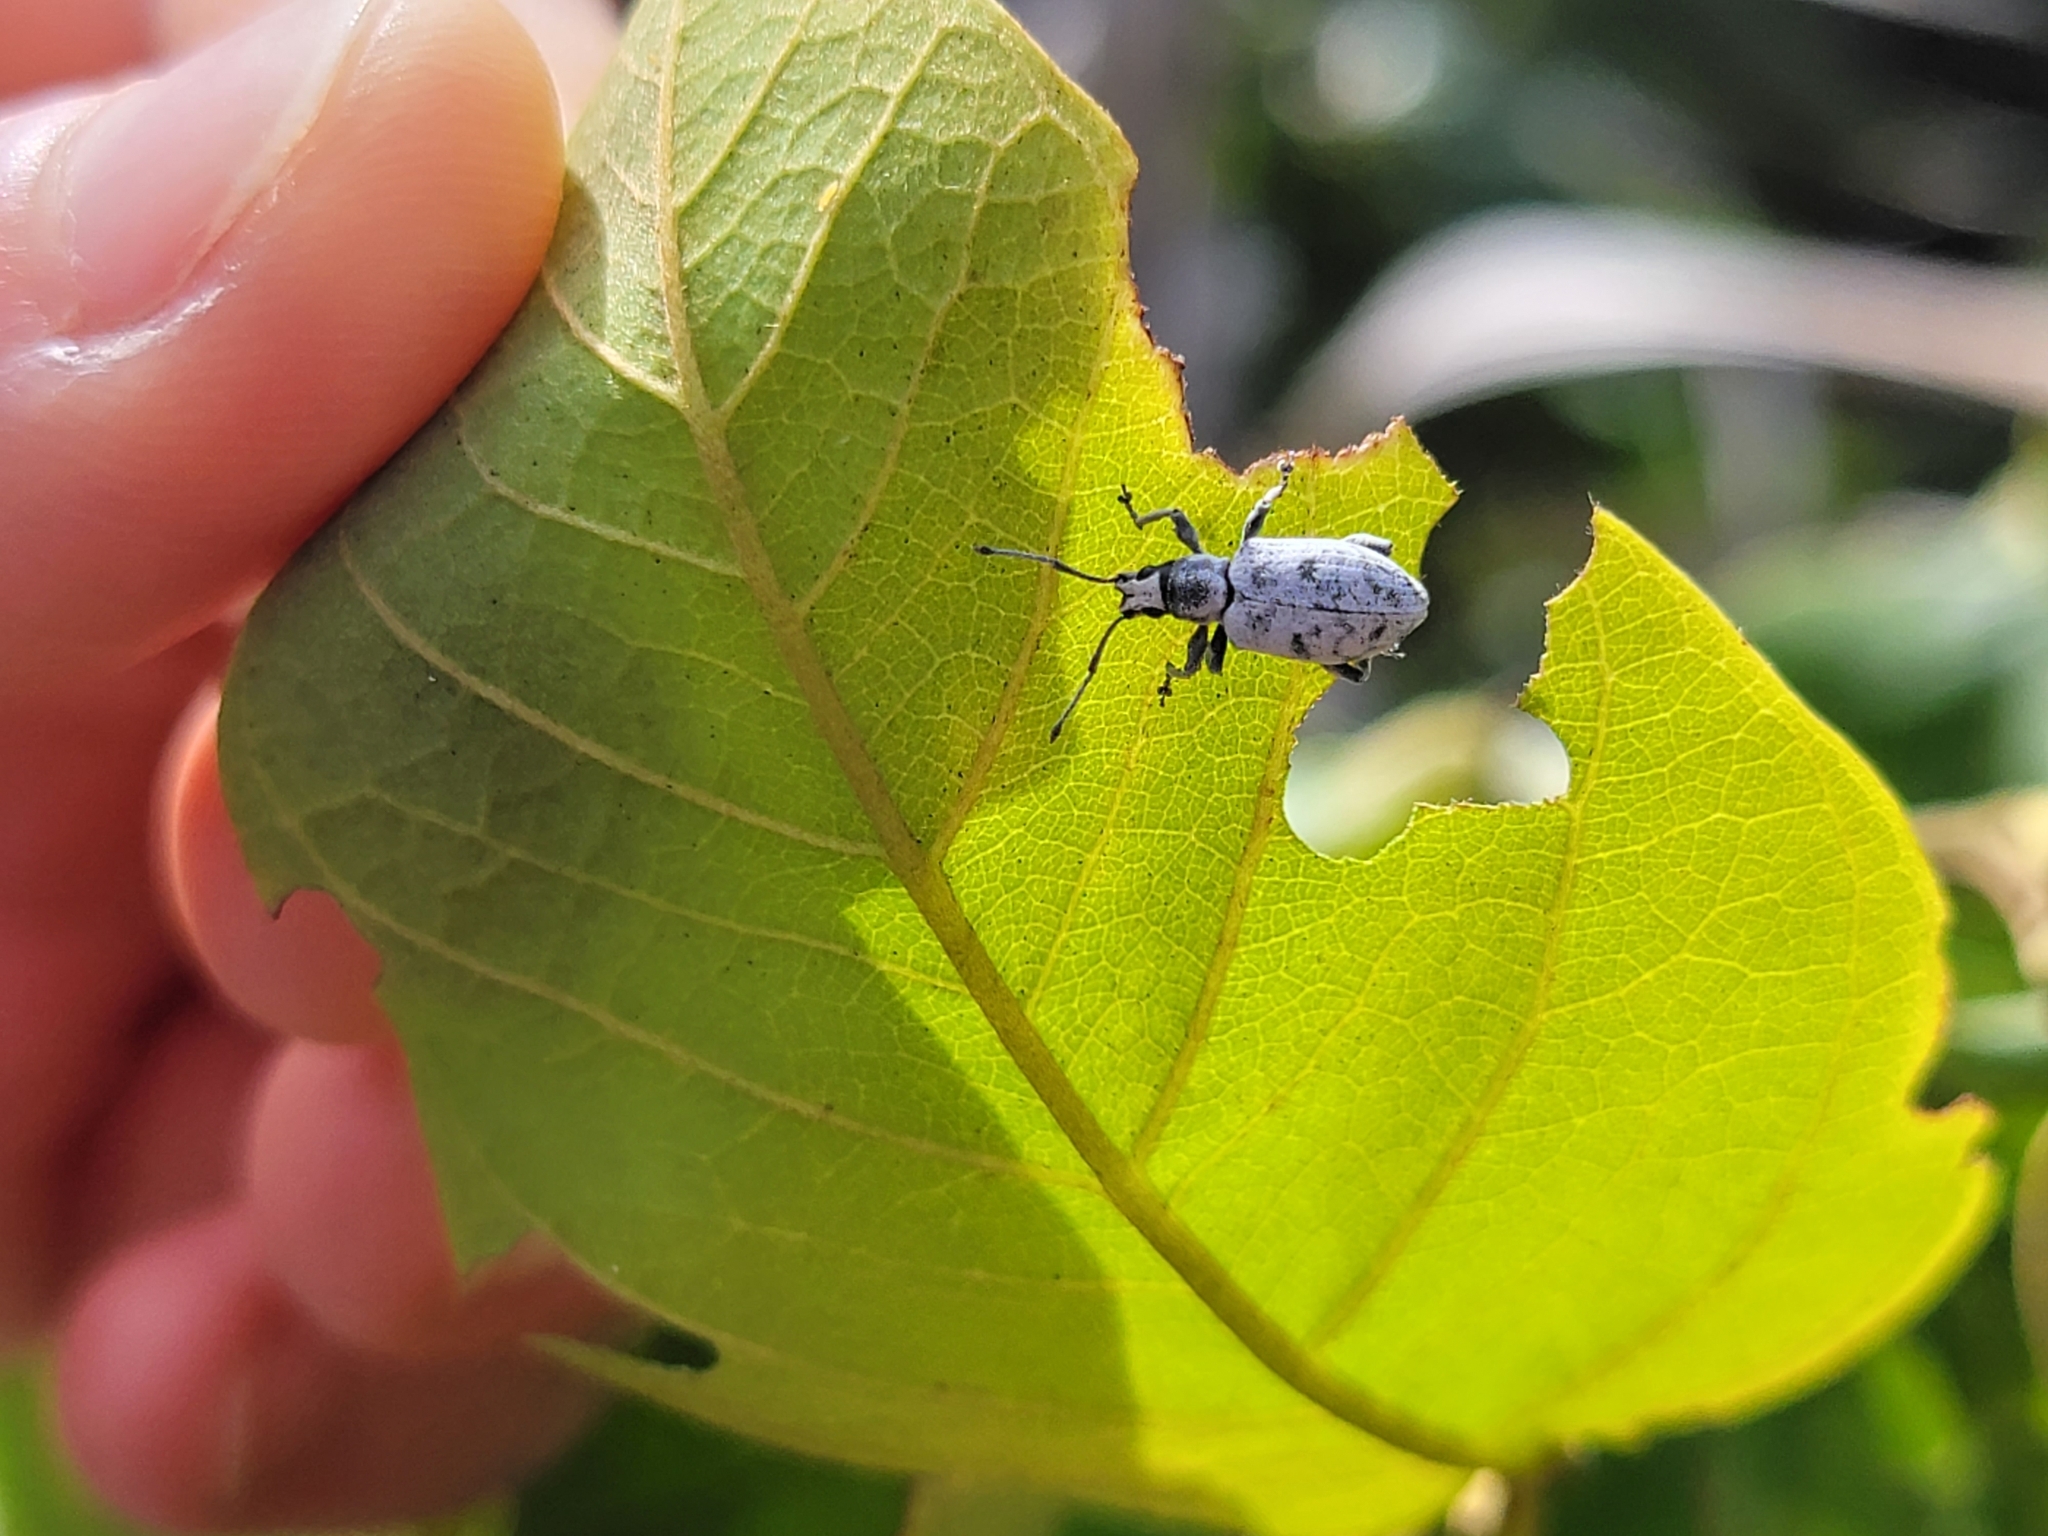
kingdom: Animalia
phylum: Arthropoda
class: Insecta
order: Coleoptera
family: Curculionidae
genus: Myllocerus
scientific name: Myllocerus undecimpustulatus
